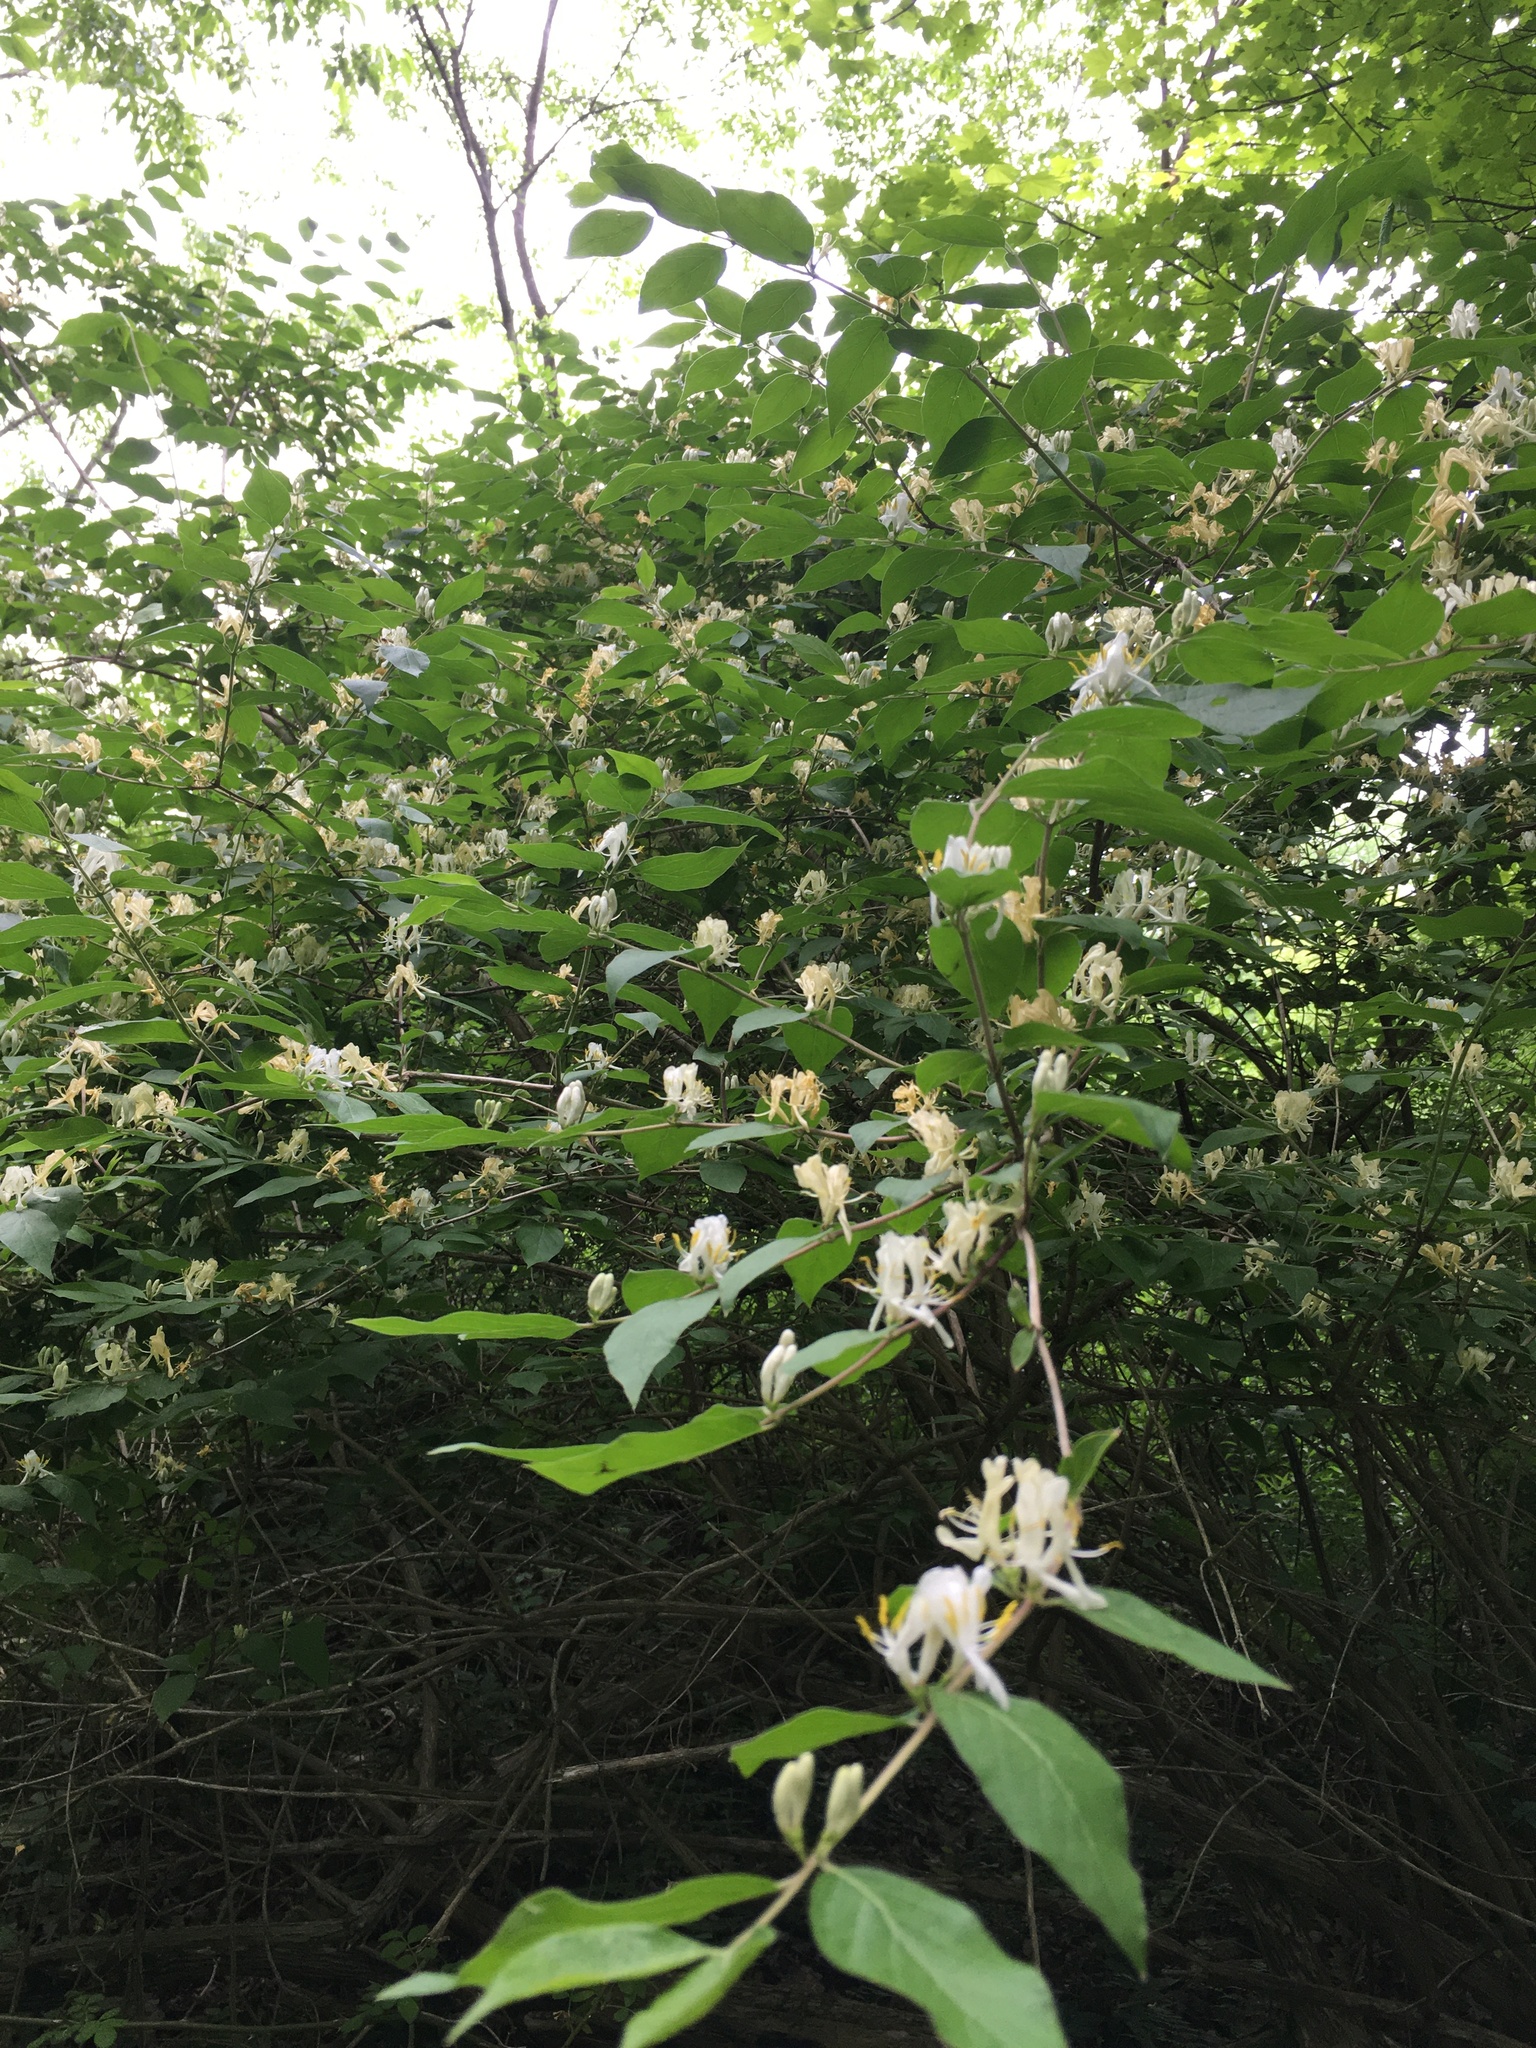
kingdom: Plantae
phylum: Tracheophyta
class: Magnoliopsida
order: Dipsacales
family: Caprifoliaceae
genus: Lonicera
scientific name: Lonicera maackii
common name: Amur honeysuckle
